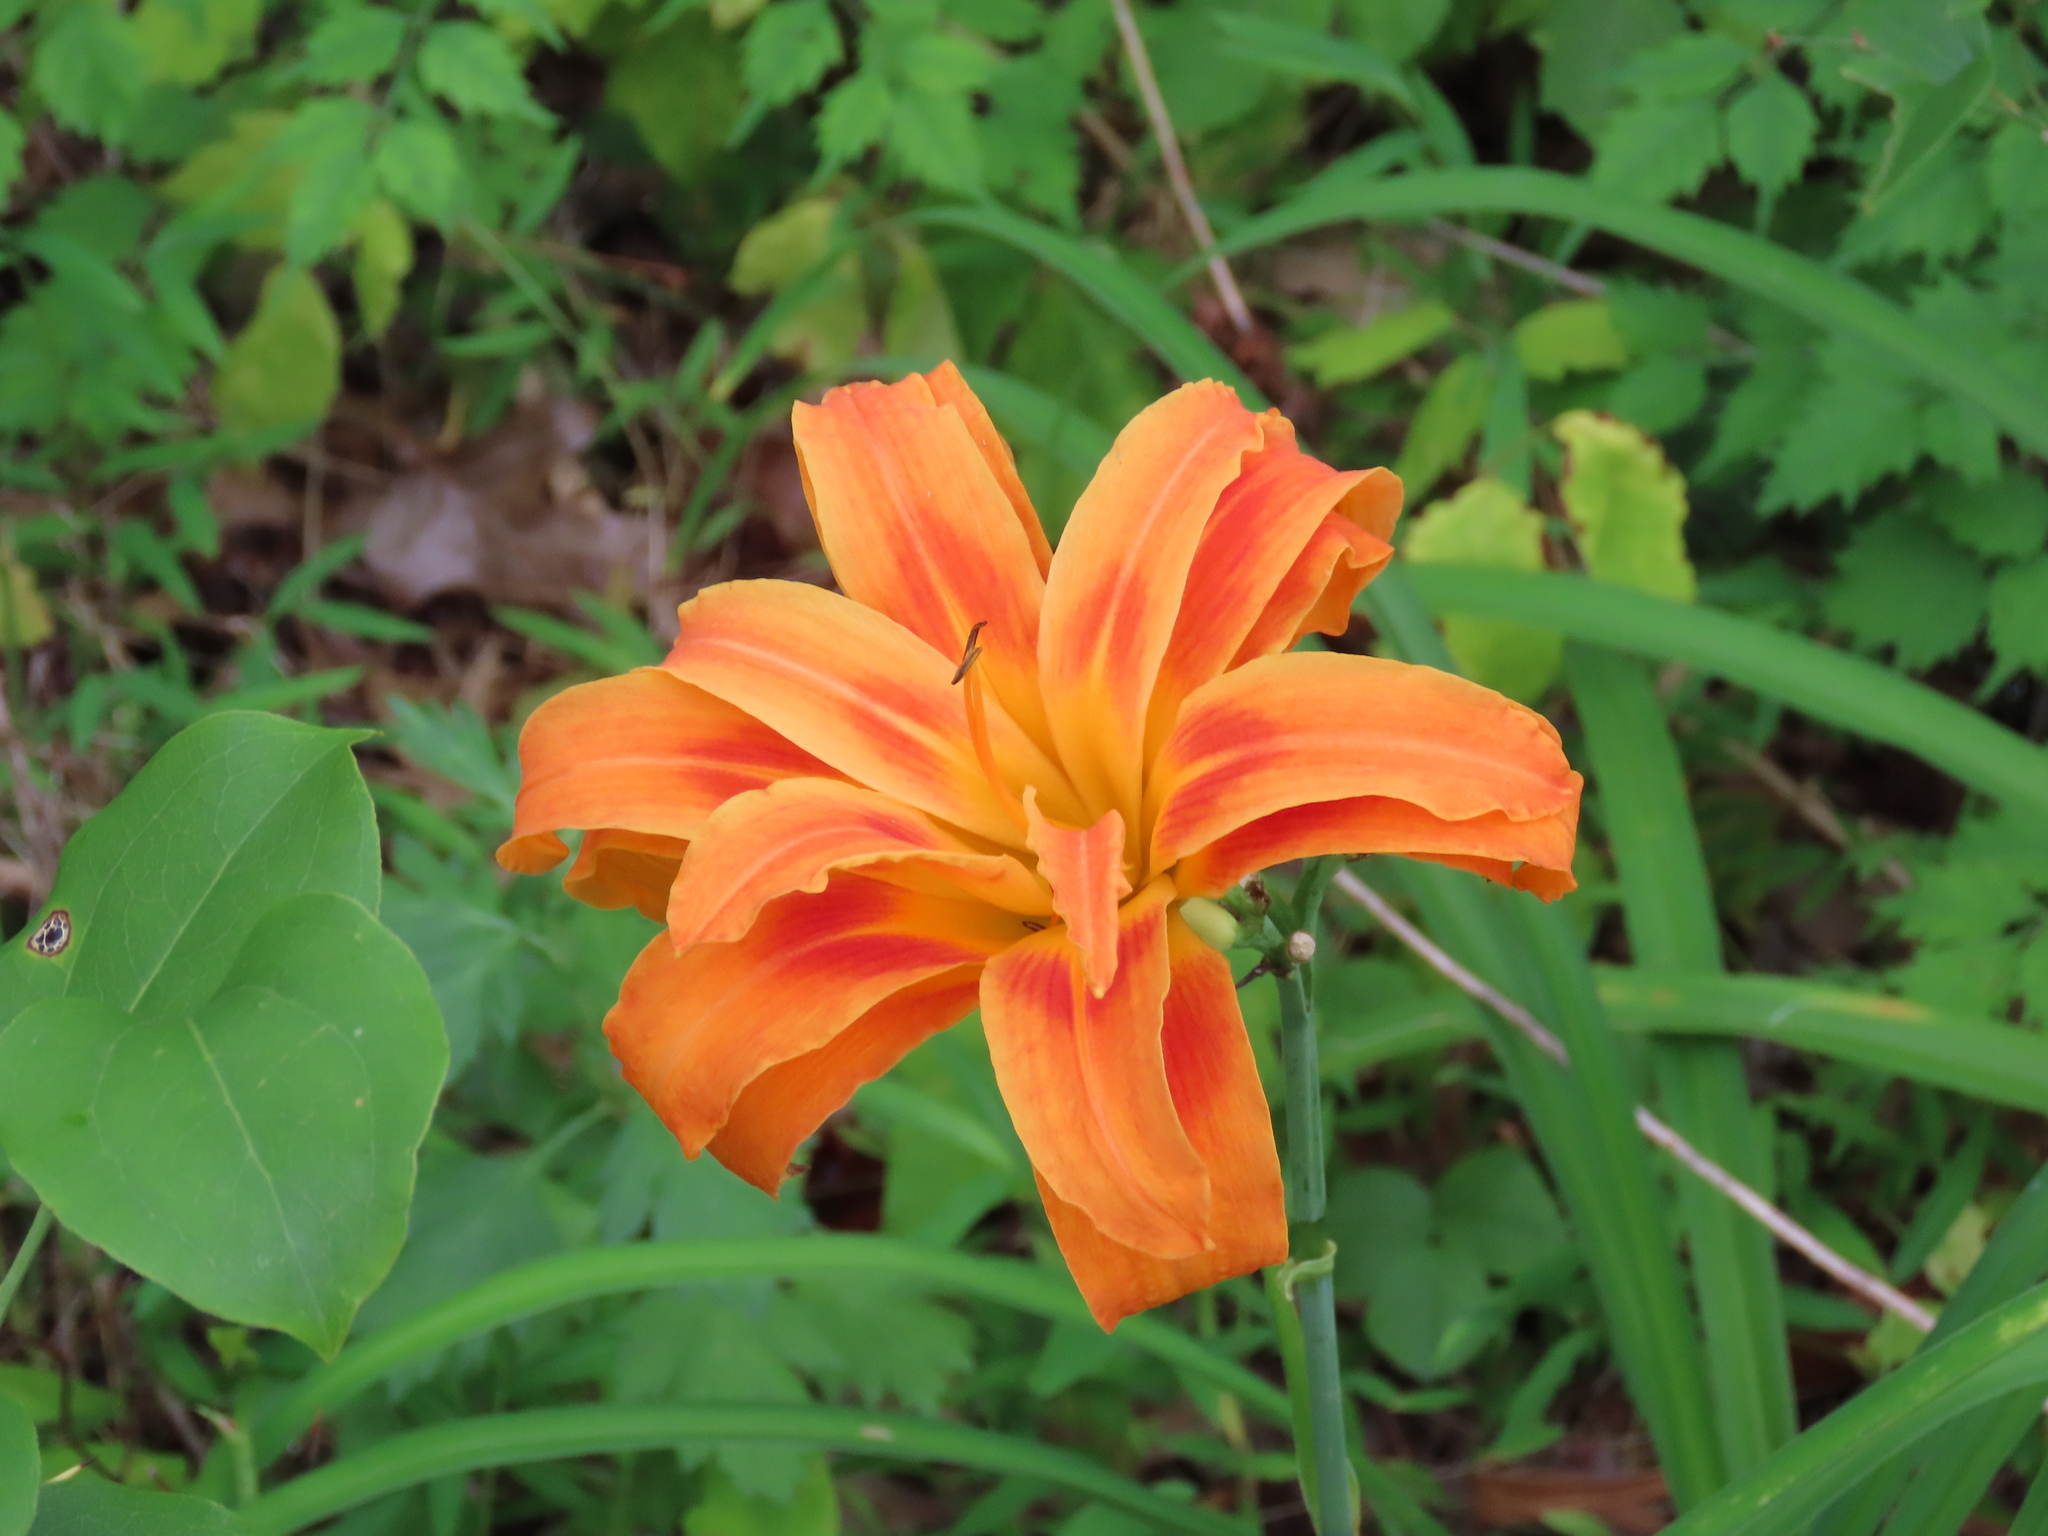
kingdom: Plantae
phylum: Tracheophyta
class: Liliopsida
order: Asparagales
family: Asphodelaceae
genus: Hemerocallis
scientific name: Hemerocallis fulva
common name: Orange day-lily
